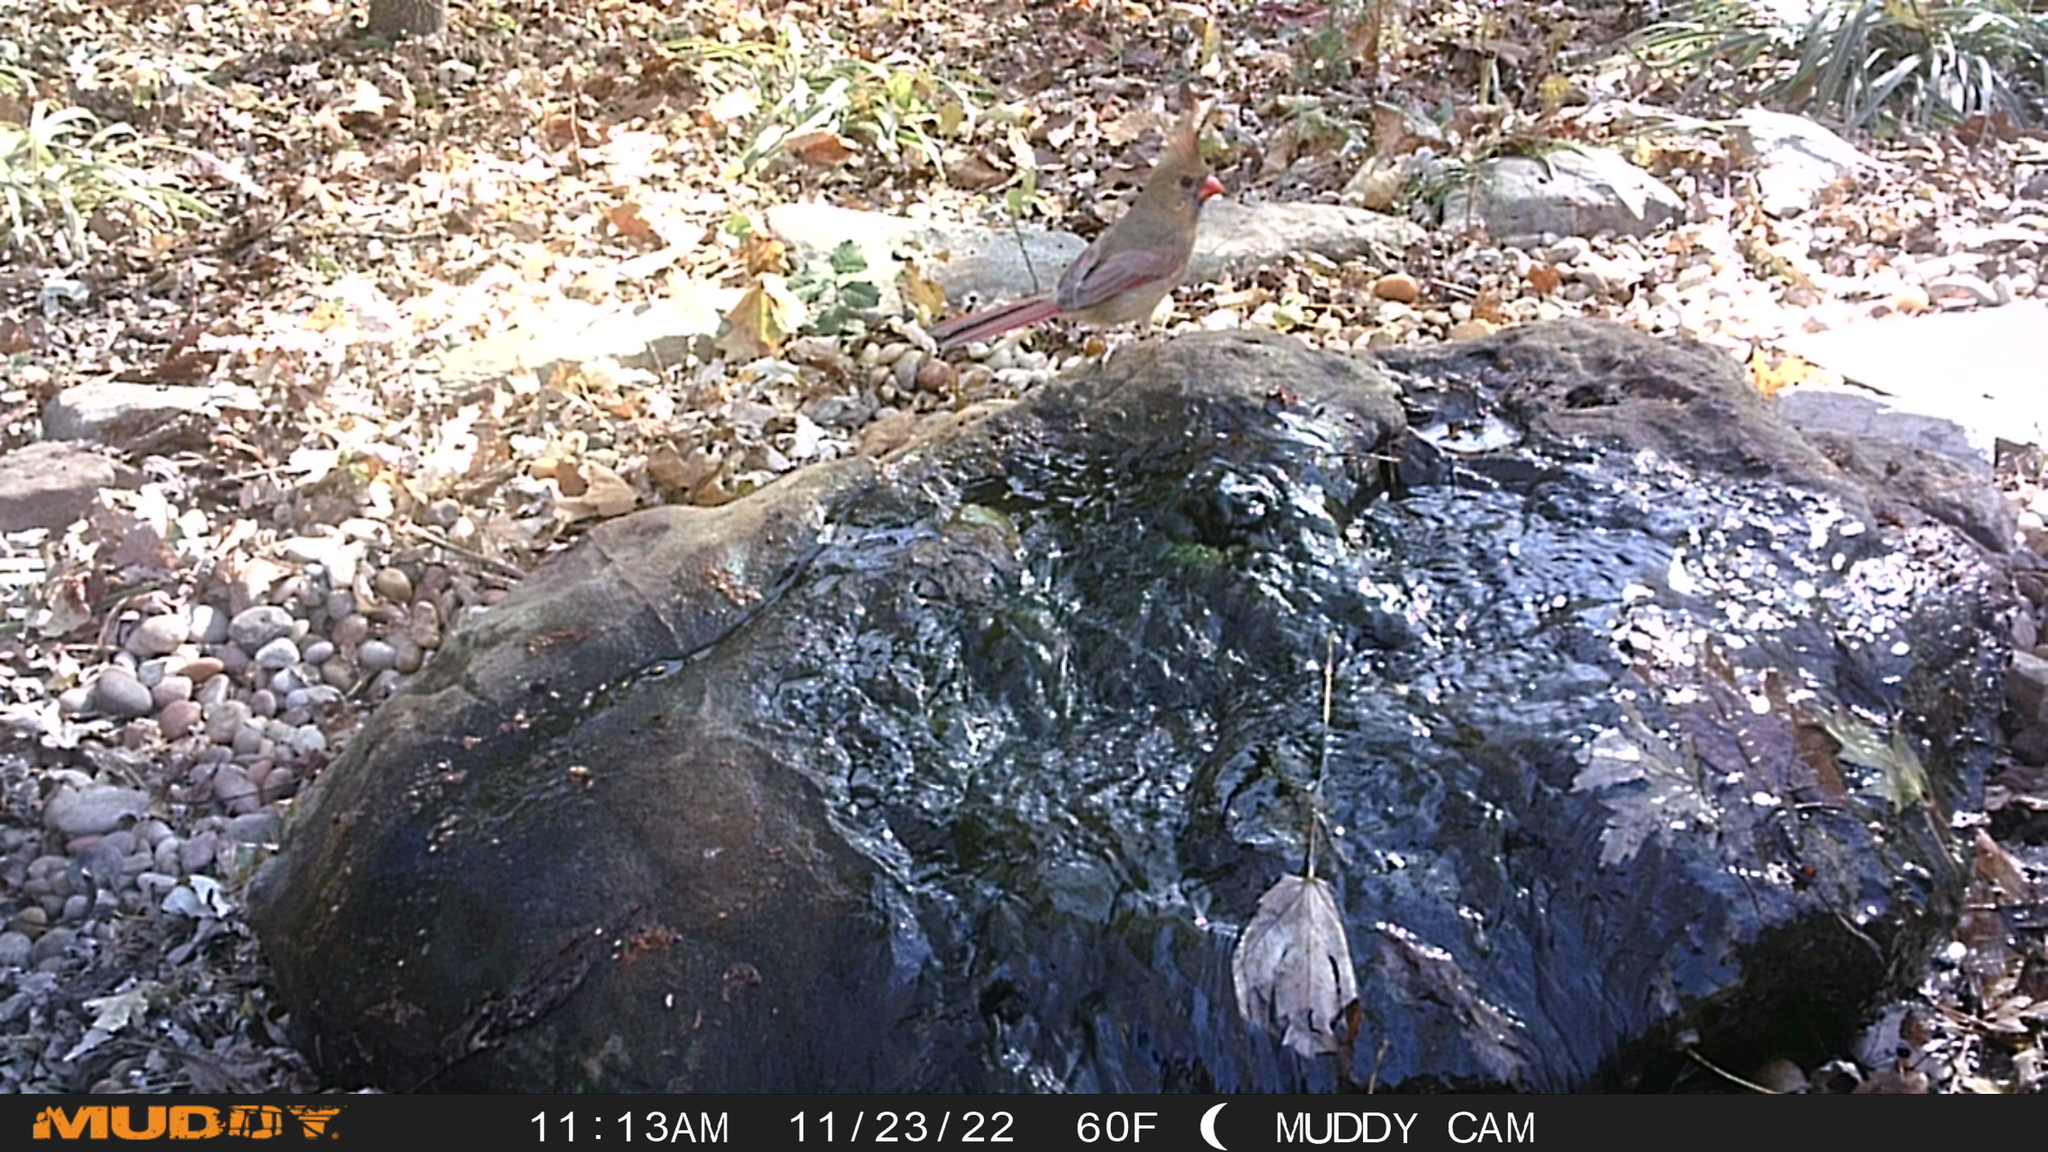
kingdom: Animalia
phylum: Chordata
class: Aves
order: Passeriformes
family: Cardinalidae
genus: Cardinalis
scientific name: Cardinalis cardinalis
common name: Northern cardinal
